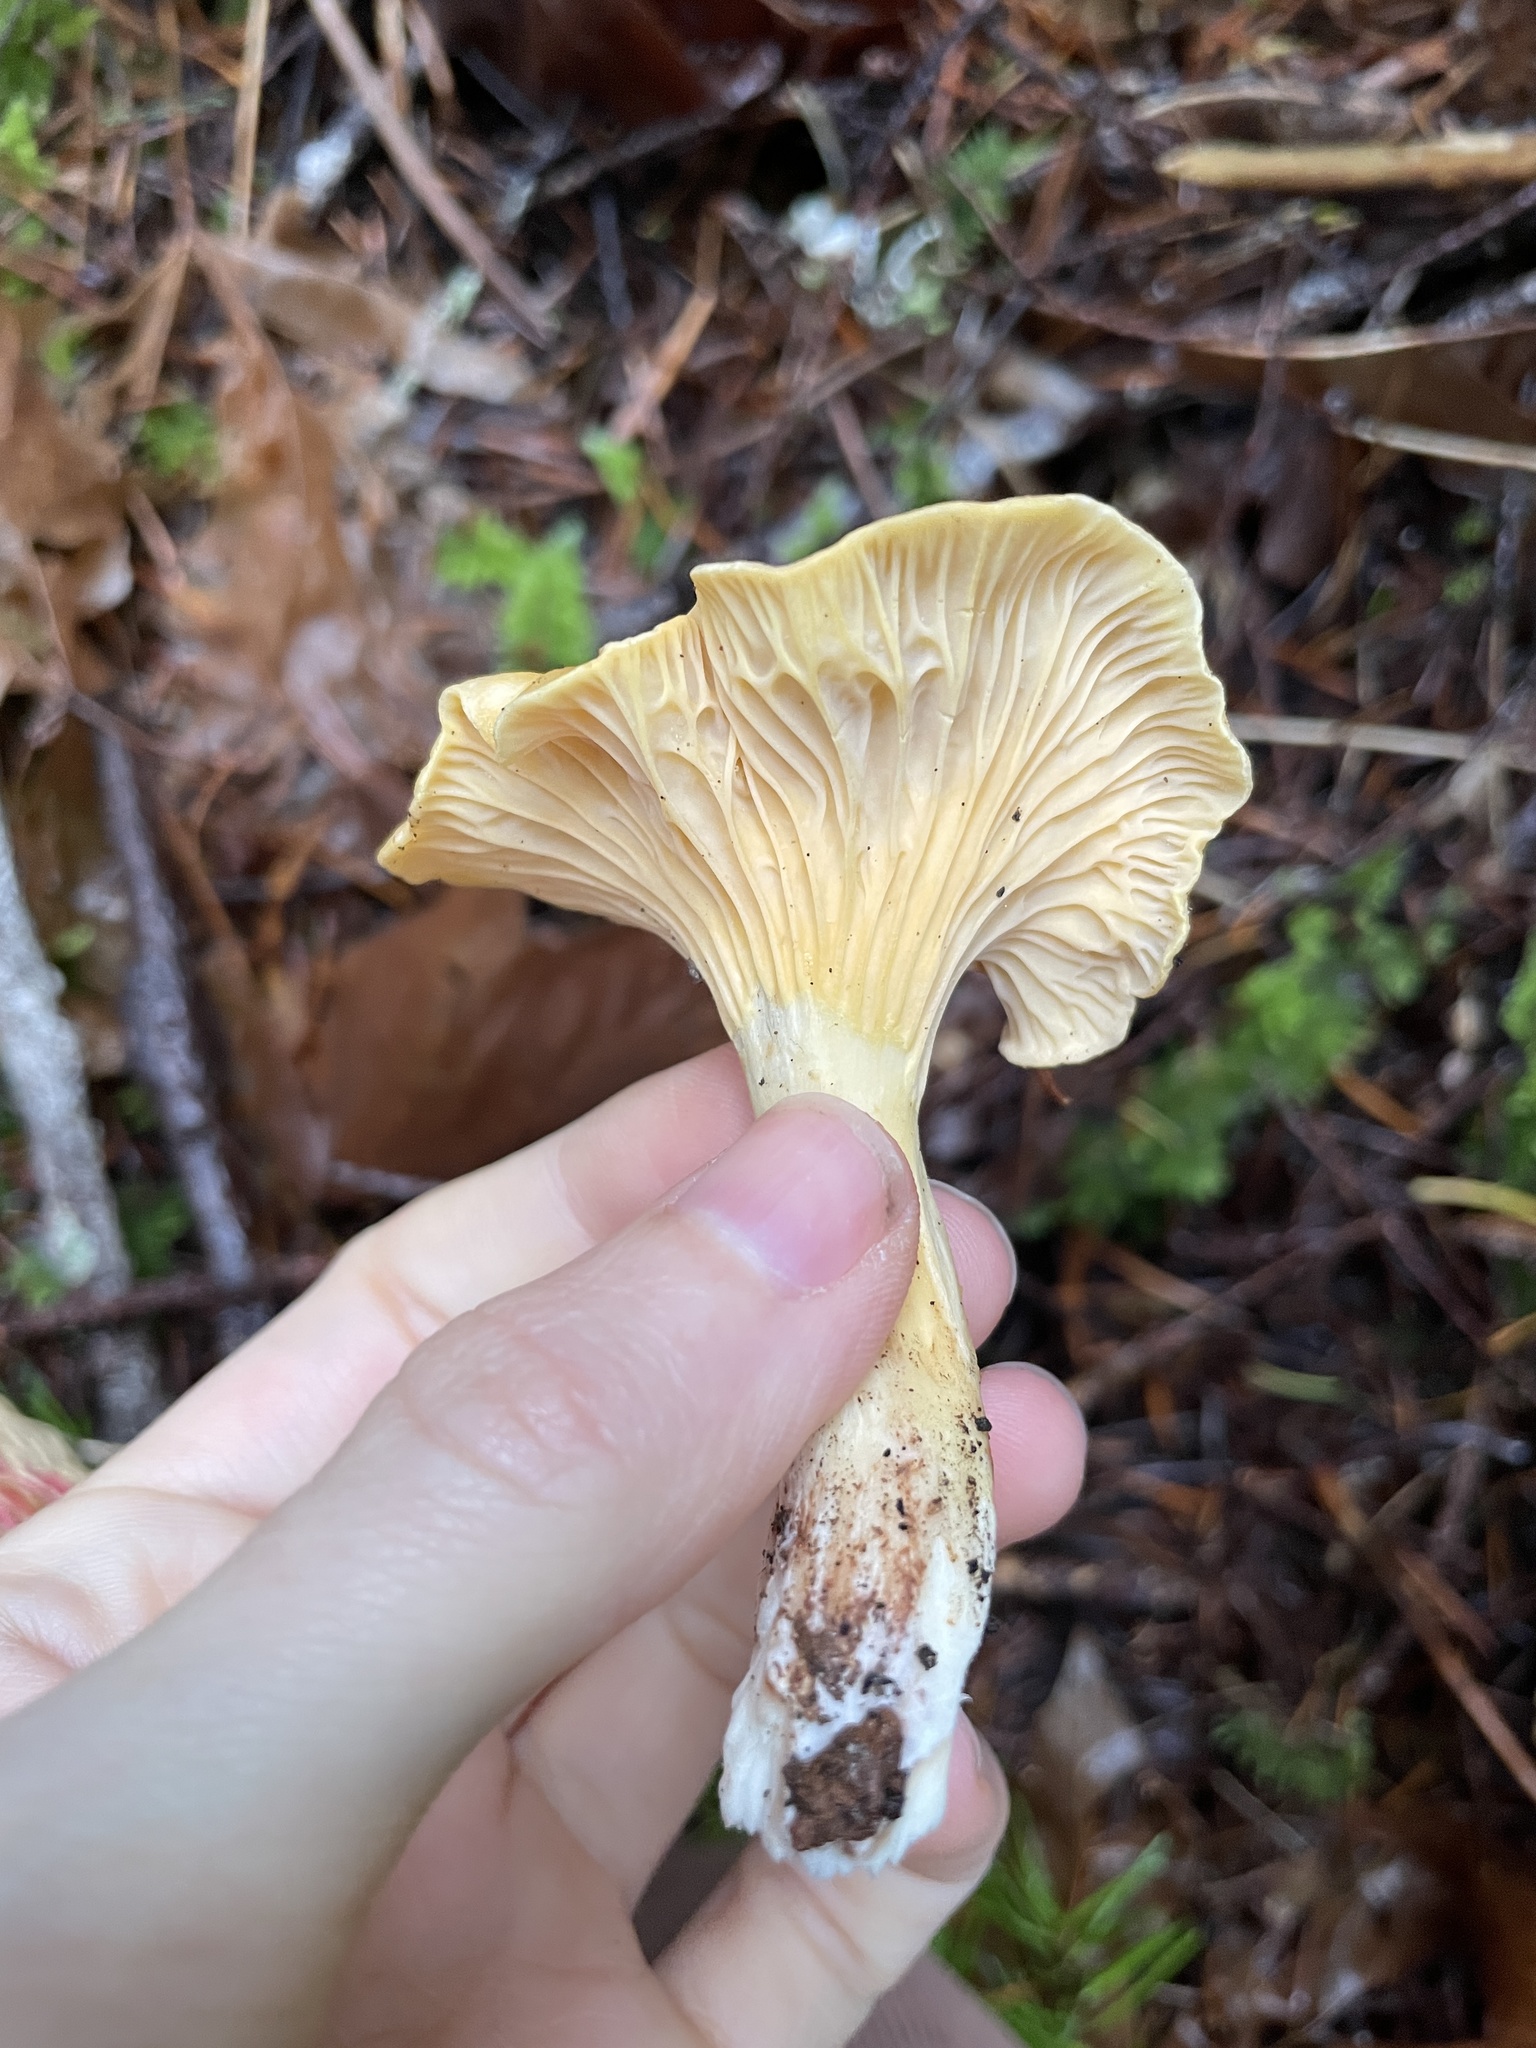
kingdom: Fungi
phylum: Basidiomycota
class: Agaricomycetes
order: Cantharellales
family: Hydnaceae
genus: Cantharellus
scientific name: Cantharellus formosus
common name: Pacific golden chanterelle
